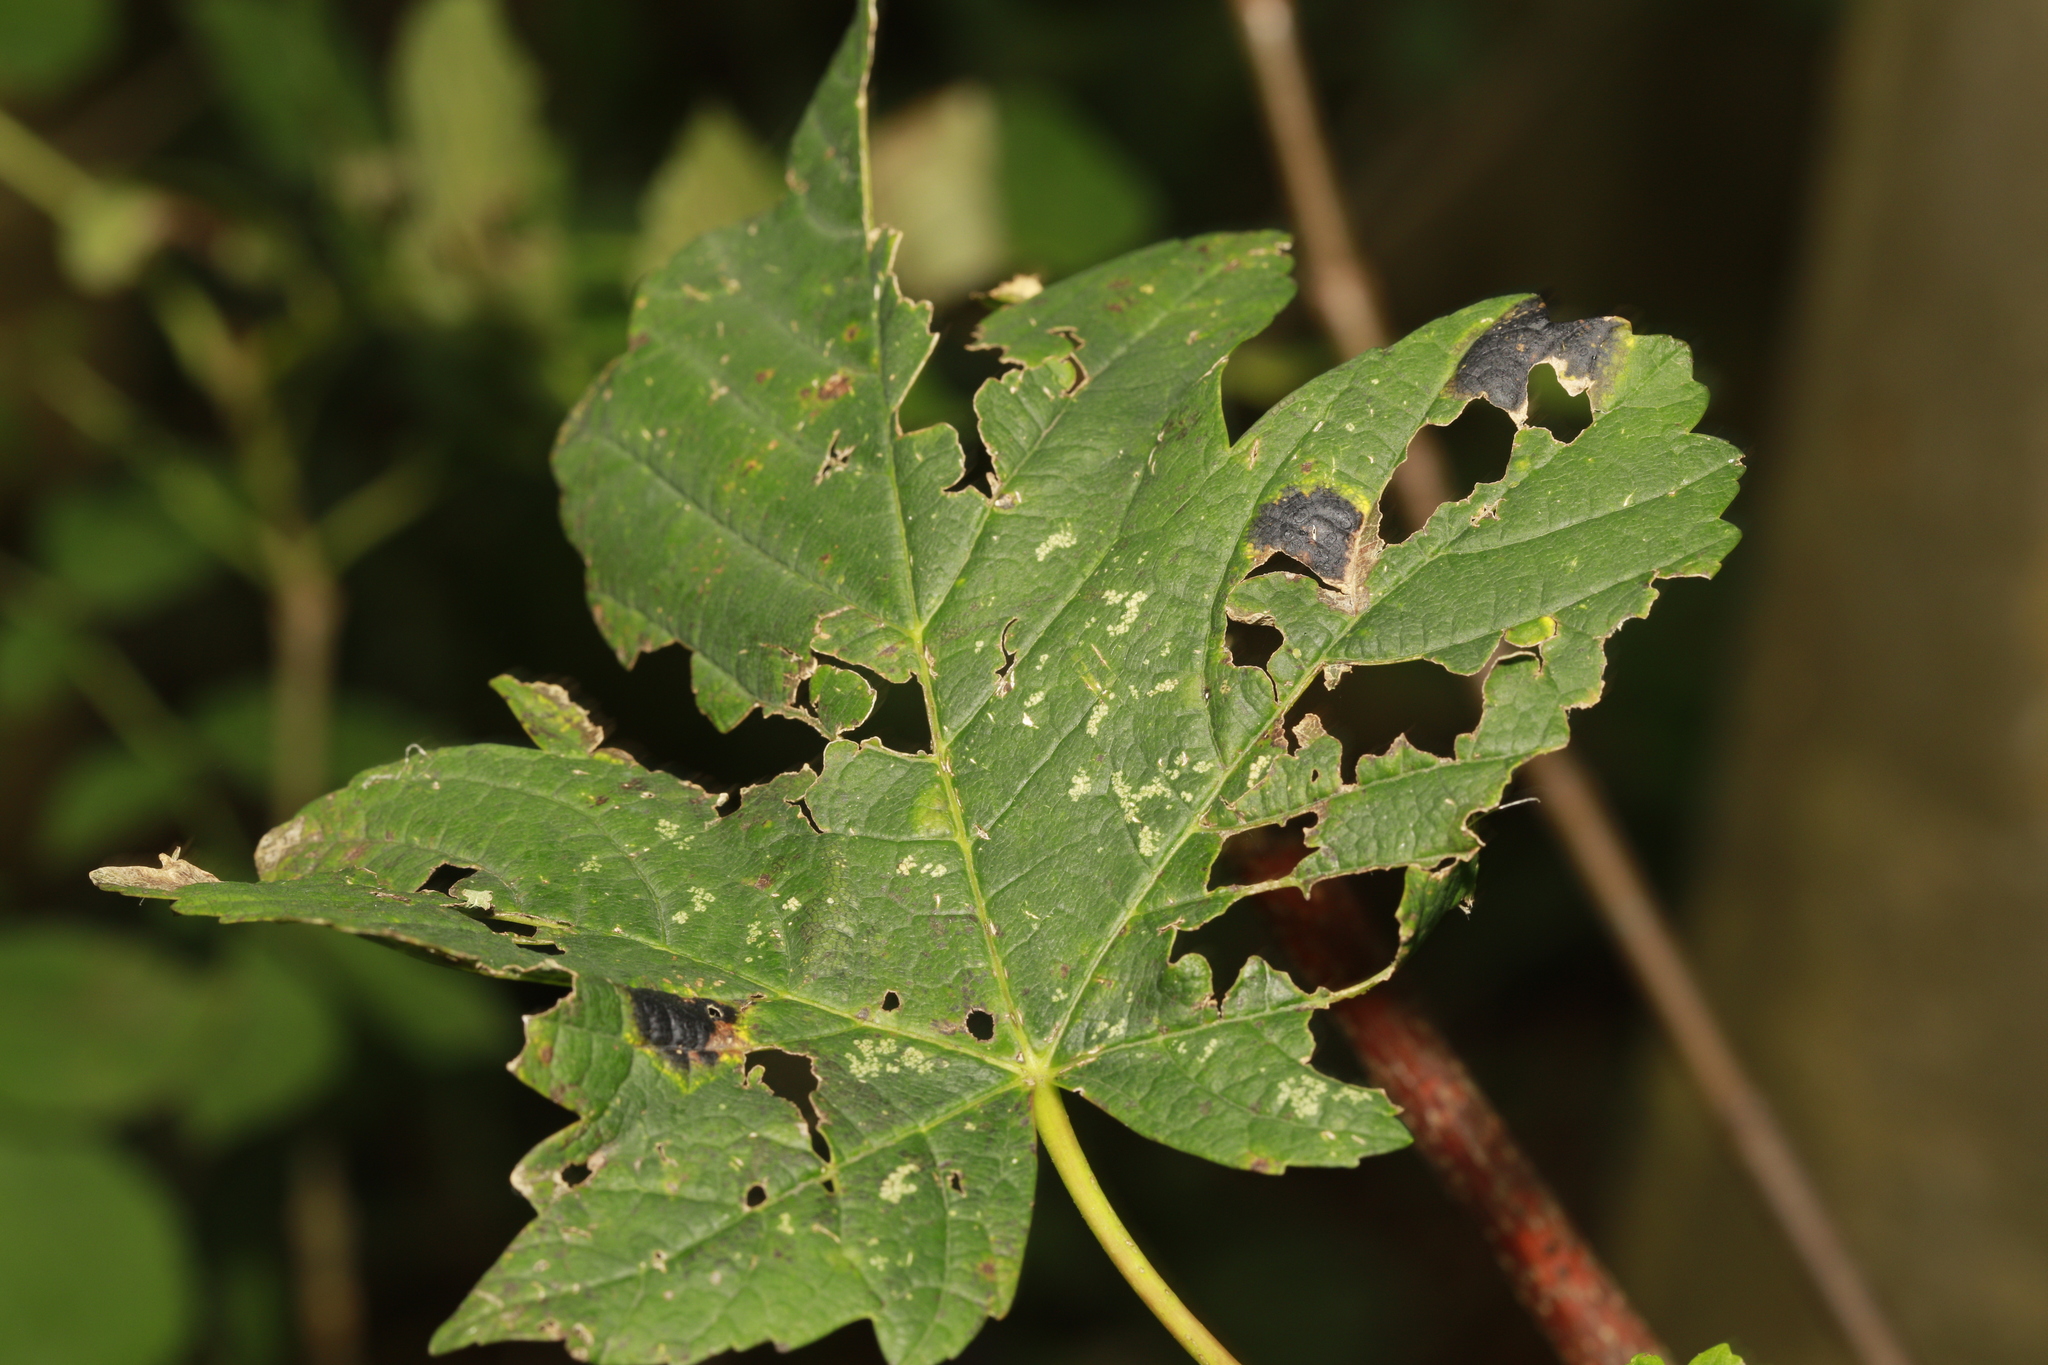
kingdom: Fungi
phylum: Ascomycota
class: Leotiomycetes
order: Rhytismatales
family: Rhytismataceae
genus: Rhytisma
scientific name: Rhytisma acerinum
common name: European tar spot
